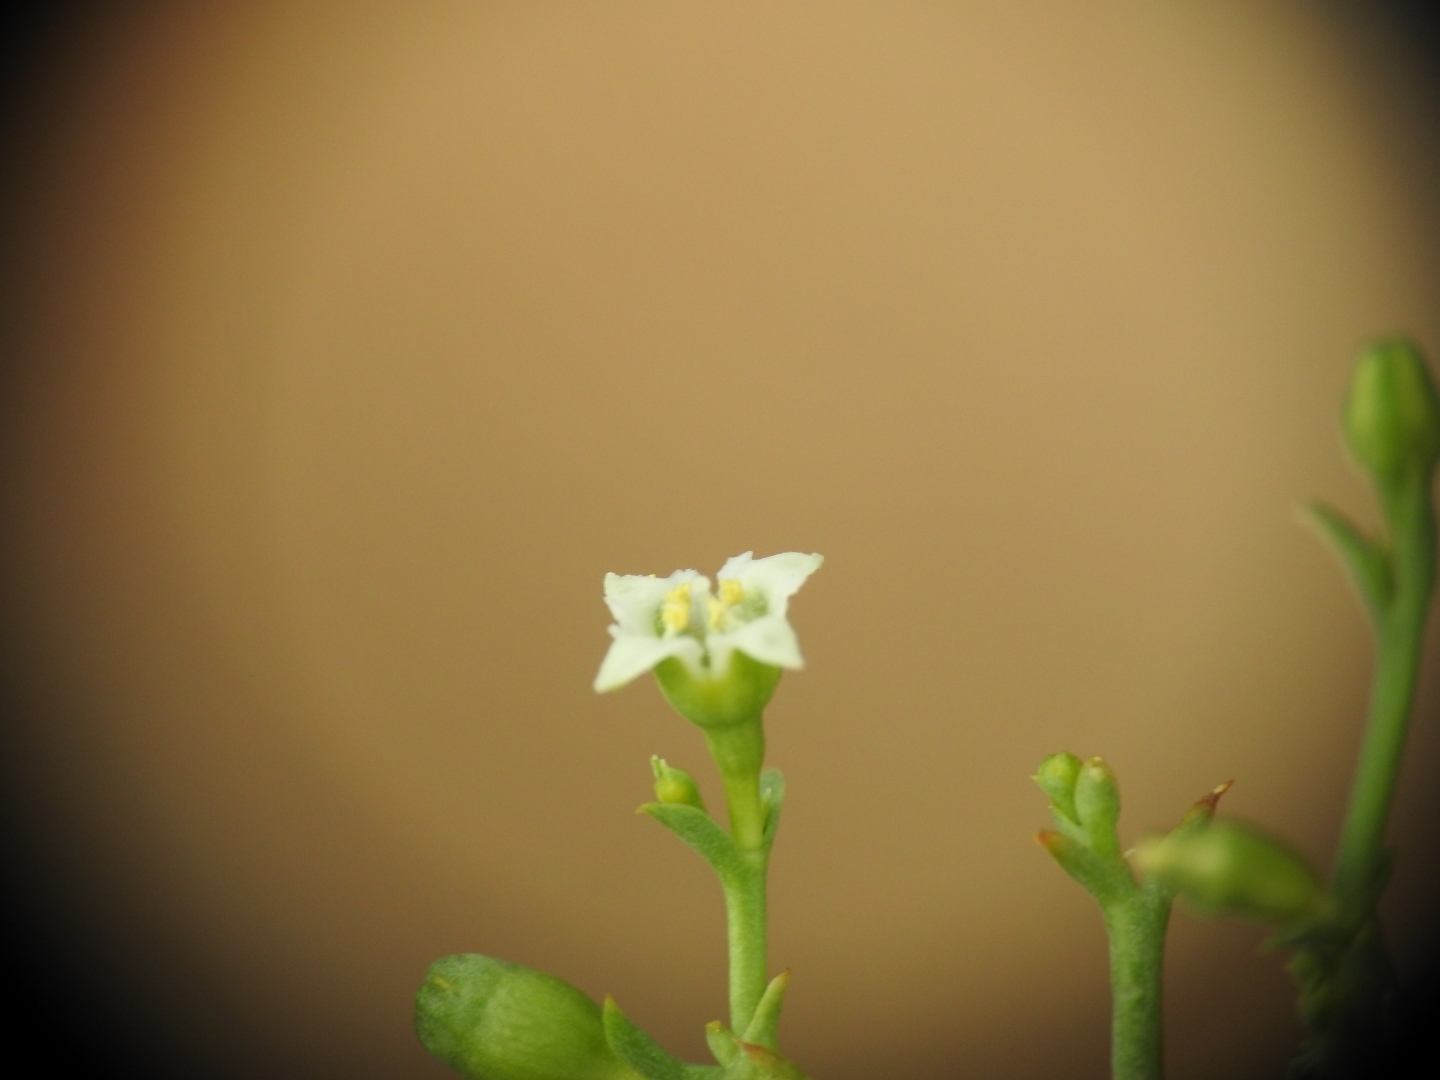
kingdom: Plantae
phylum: Tracheophyta
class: Magnoliopsida
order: Santalales
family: Thesiaceae
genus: Thesium
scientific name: Thesium divaricatum
